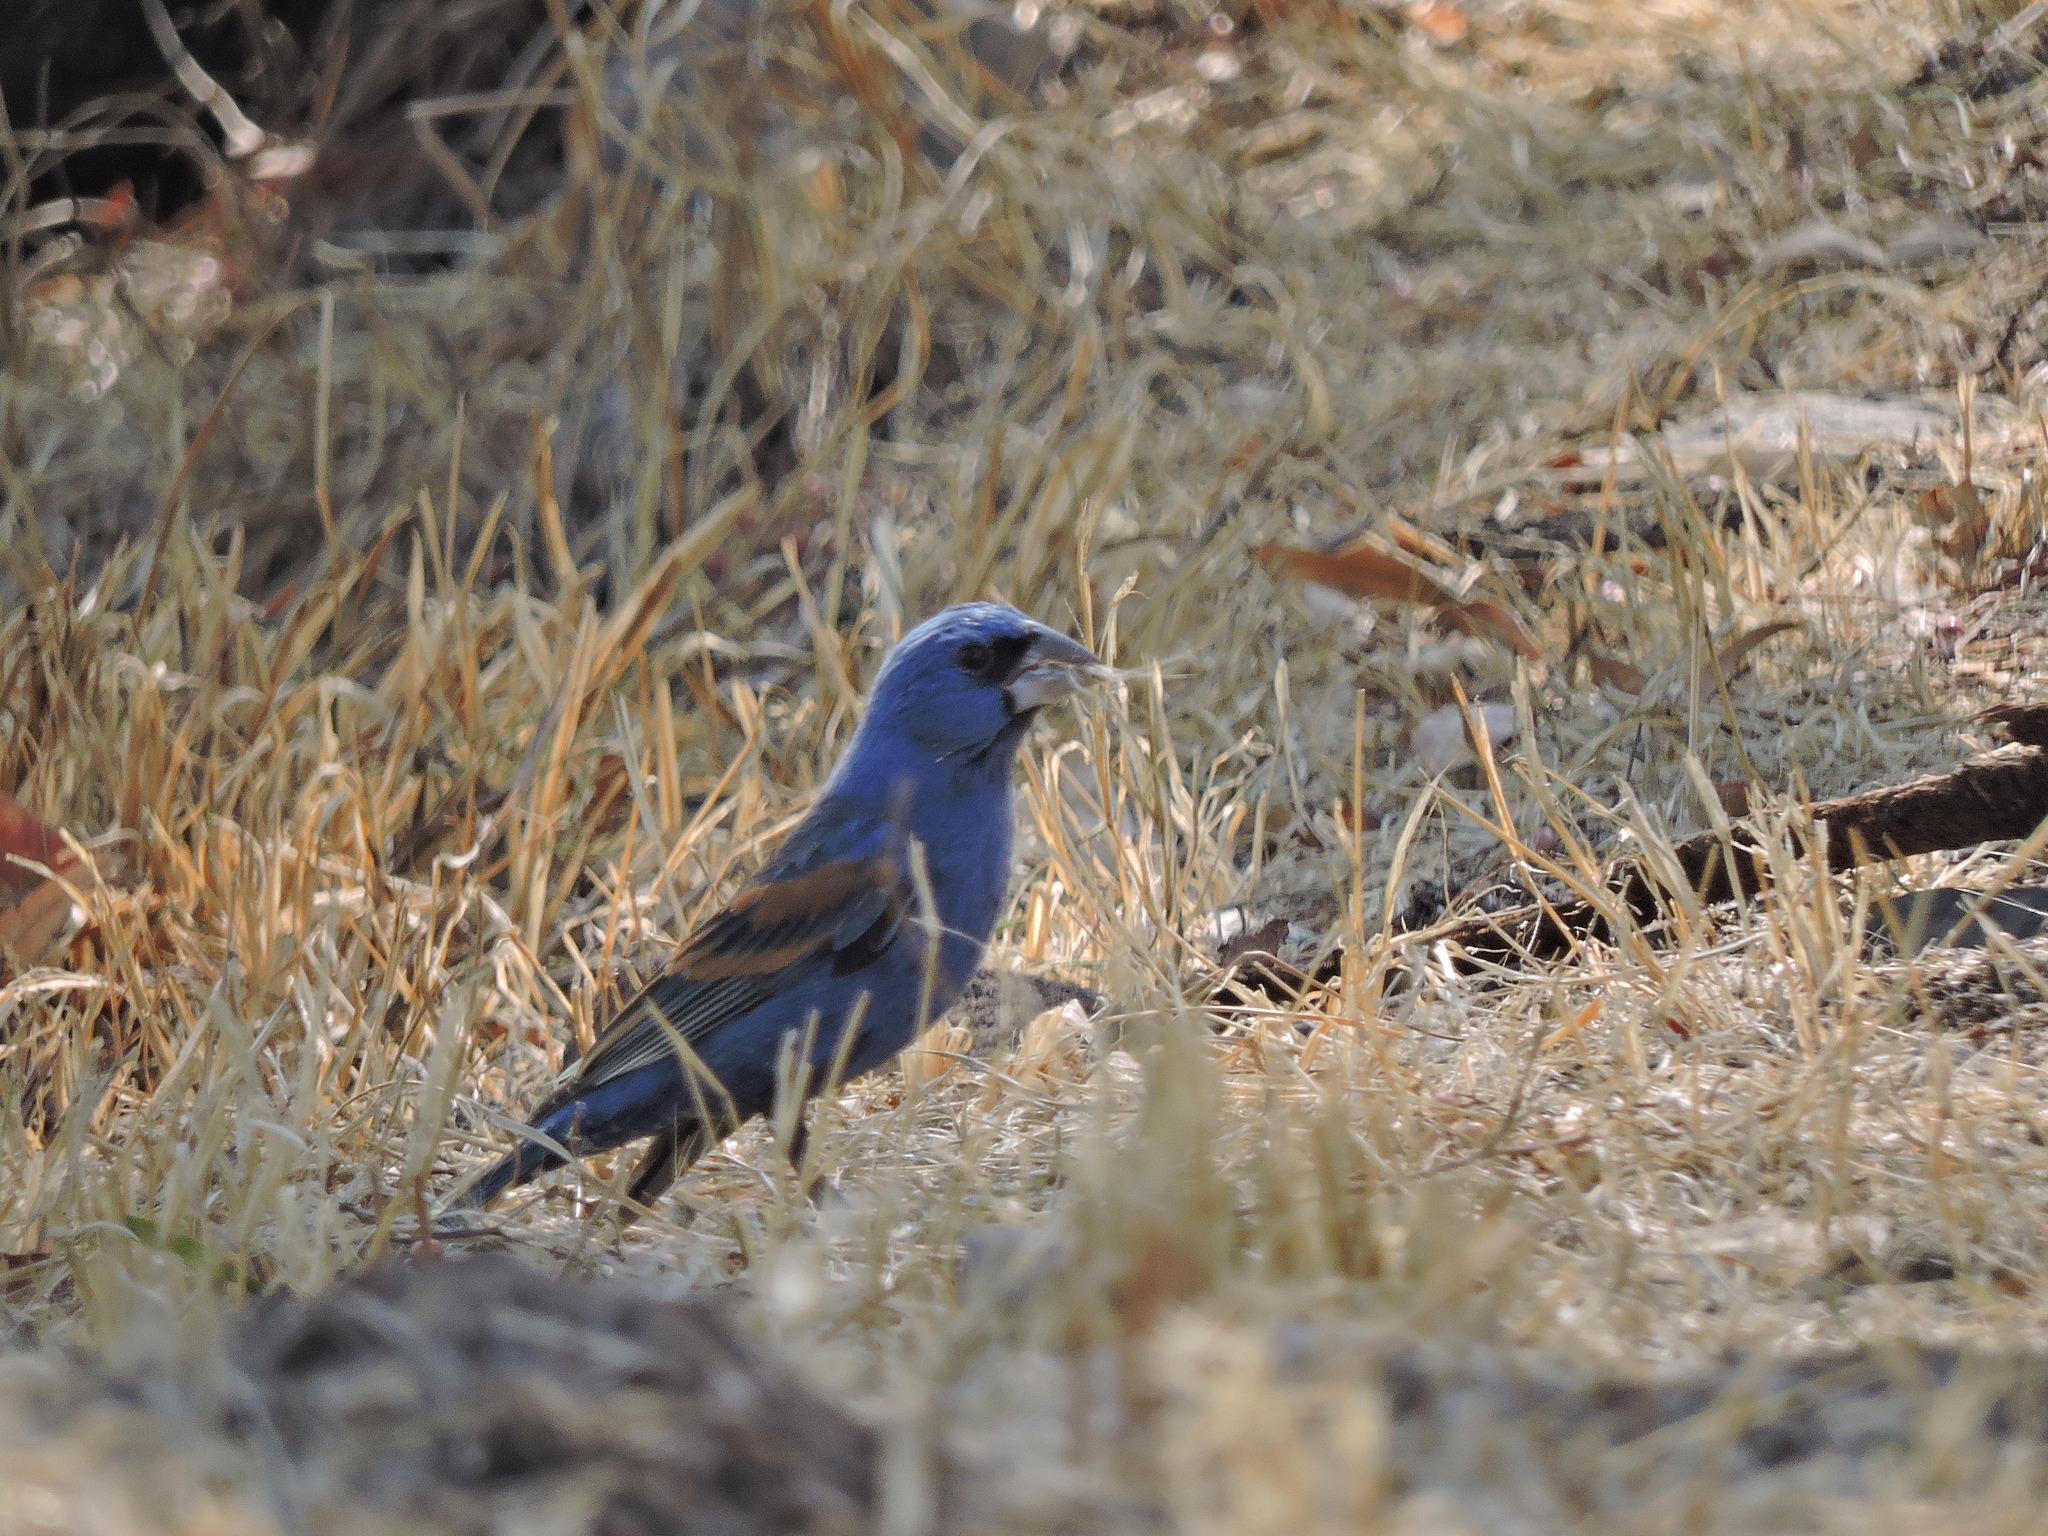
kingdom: Animalia
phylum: Chordata
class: Aves
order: Passeriformes
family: Cardinalidae
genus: Passerina
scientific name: Passerina caerulea
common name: Blue grosbeak
